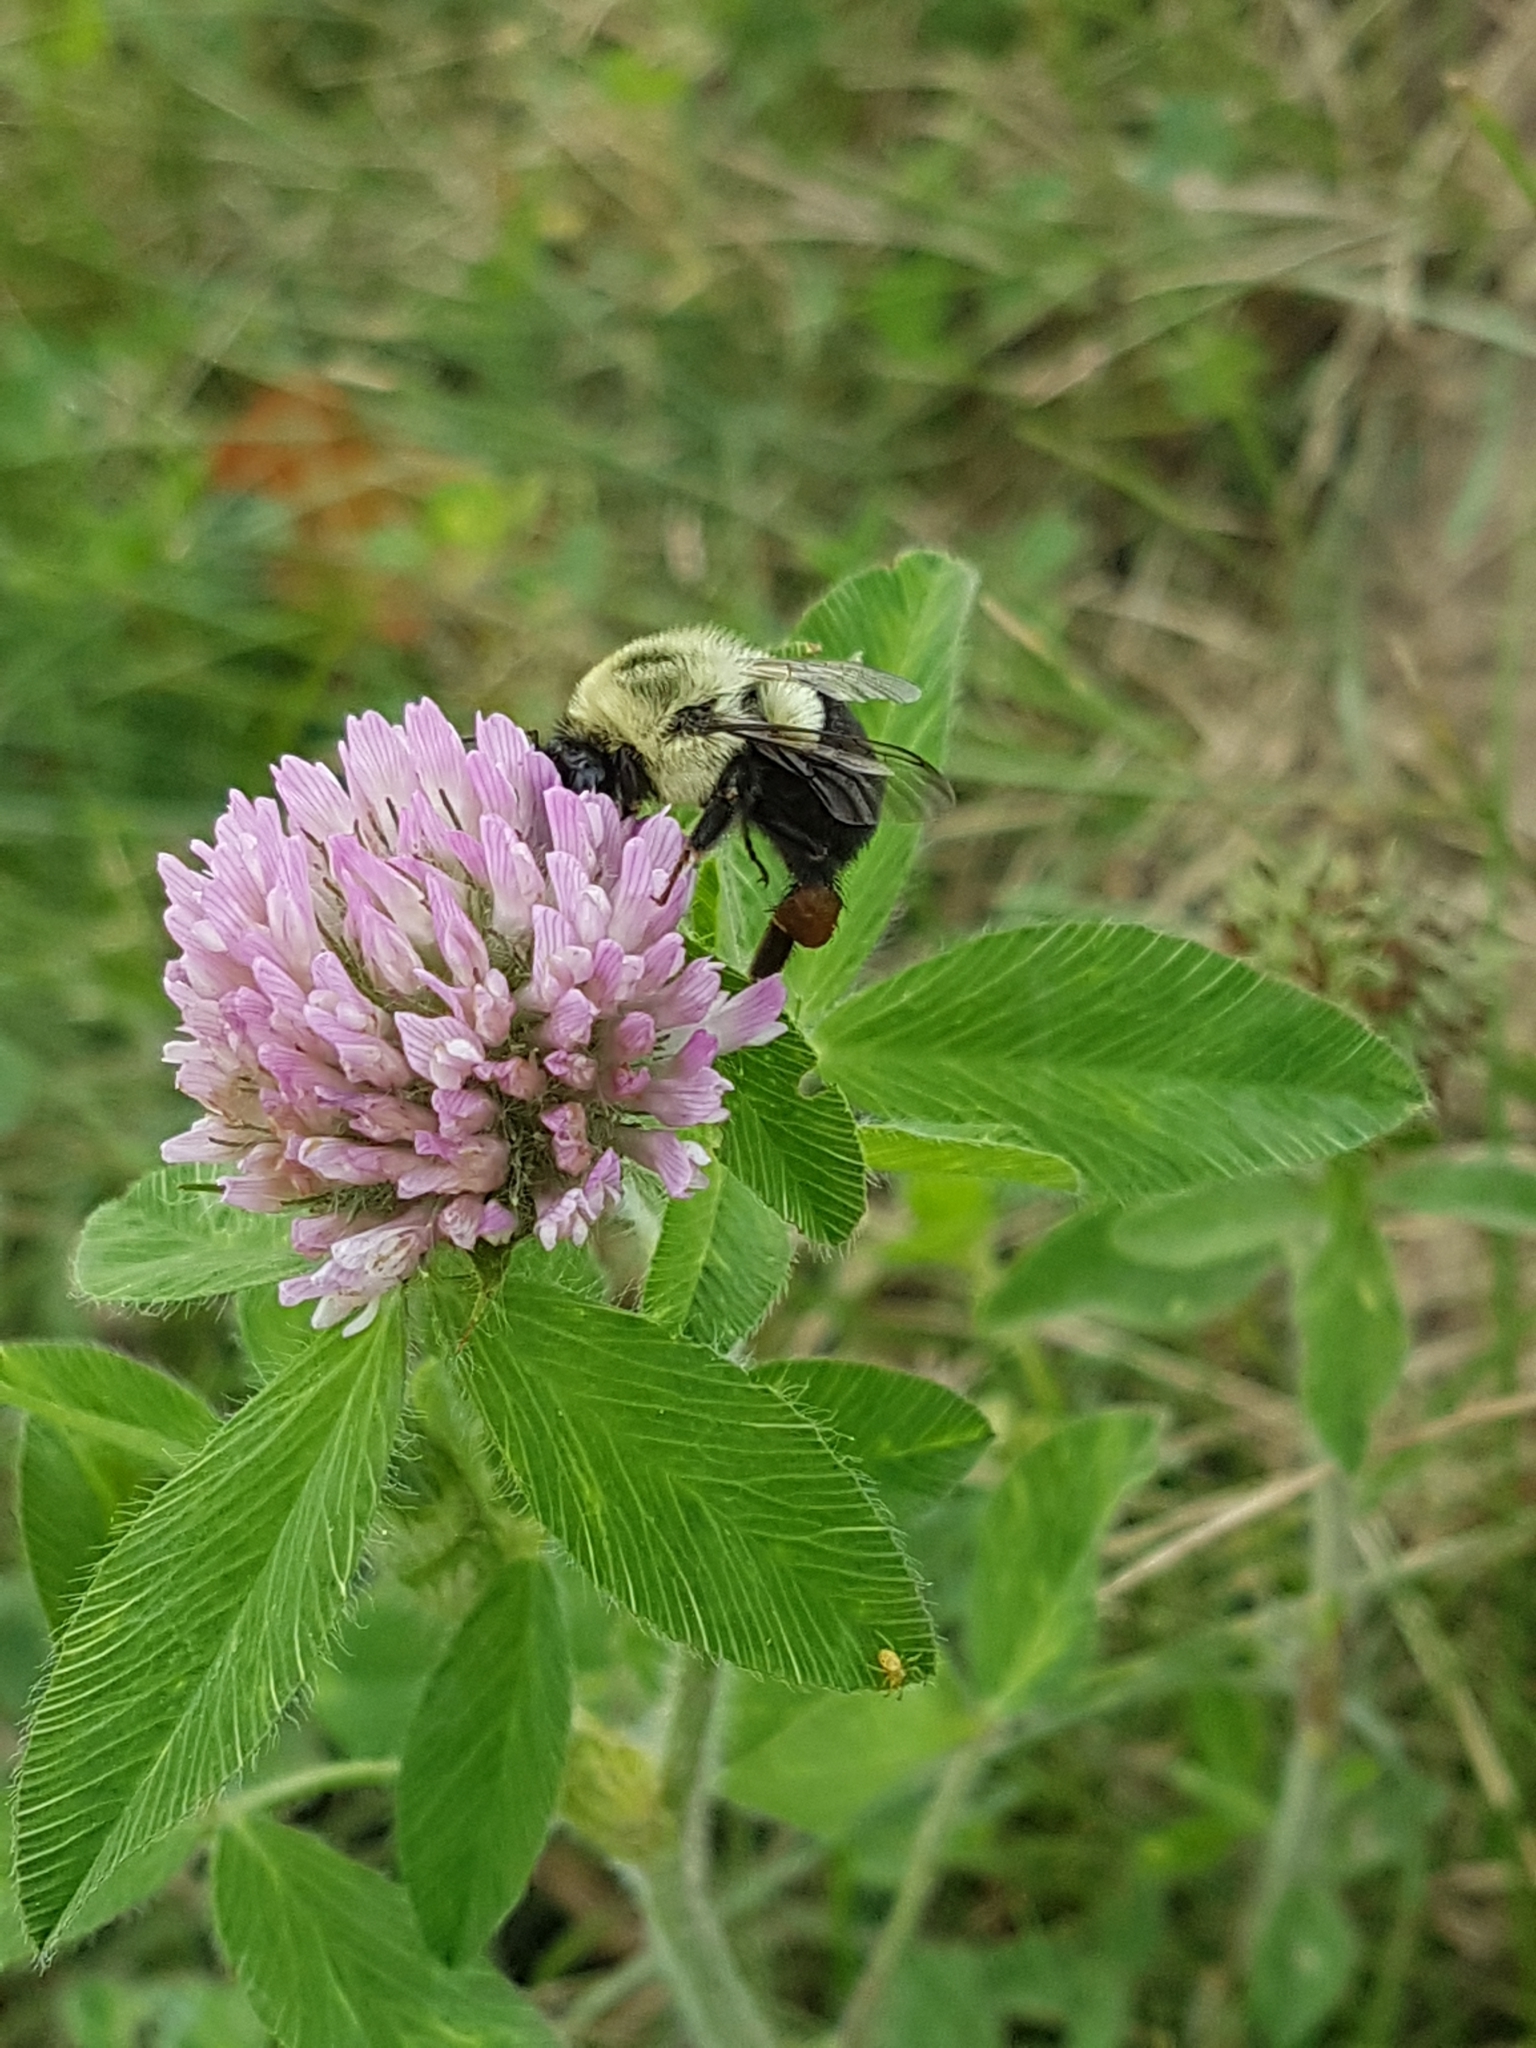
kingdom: Animalia
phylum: Arthropoda
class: Insecta
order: Hymenoptera
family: Apidae
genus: Bombus
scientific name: Bombus impatiens
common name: Common eastern bumble bee
